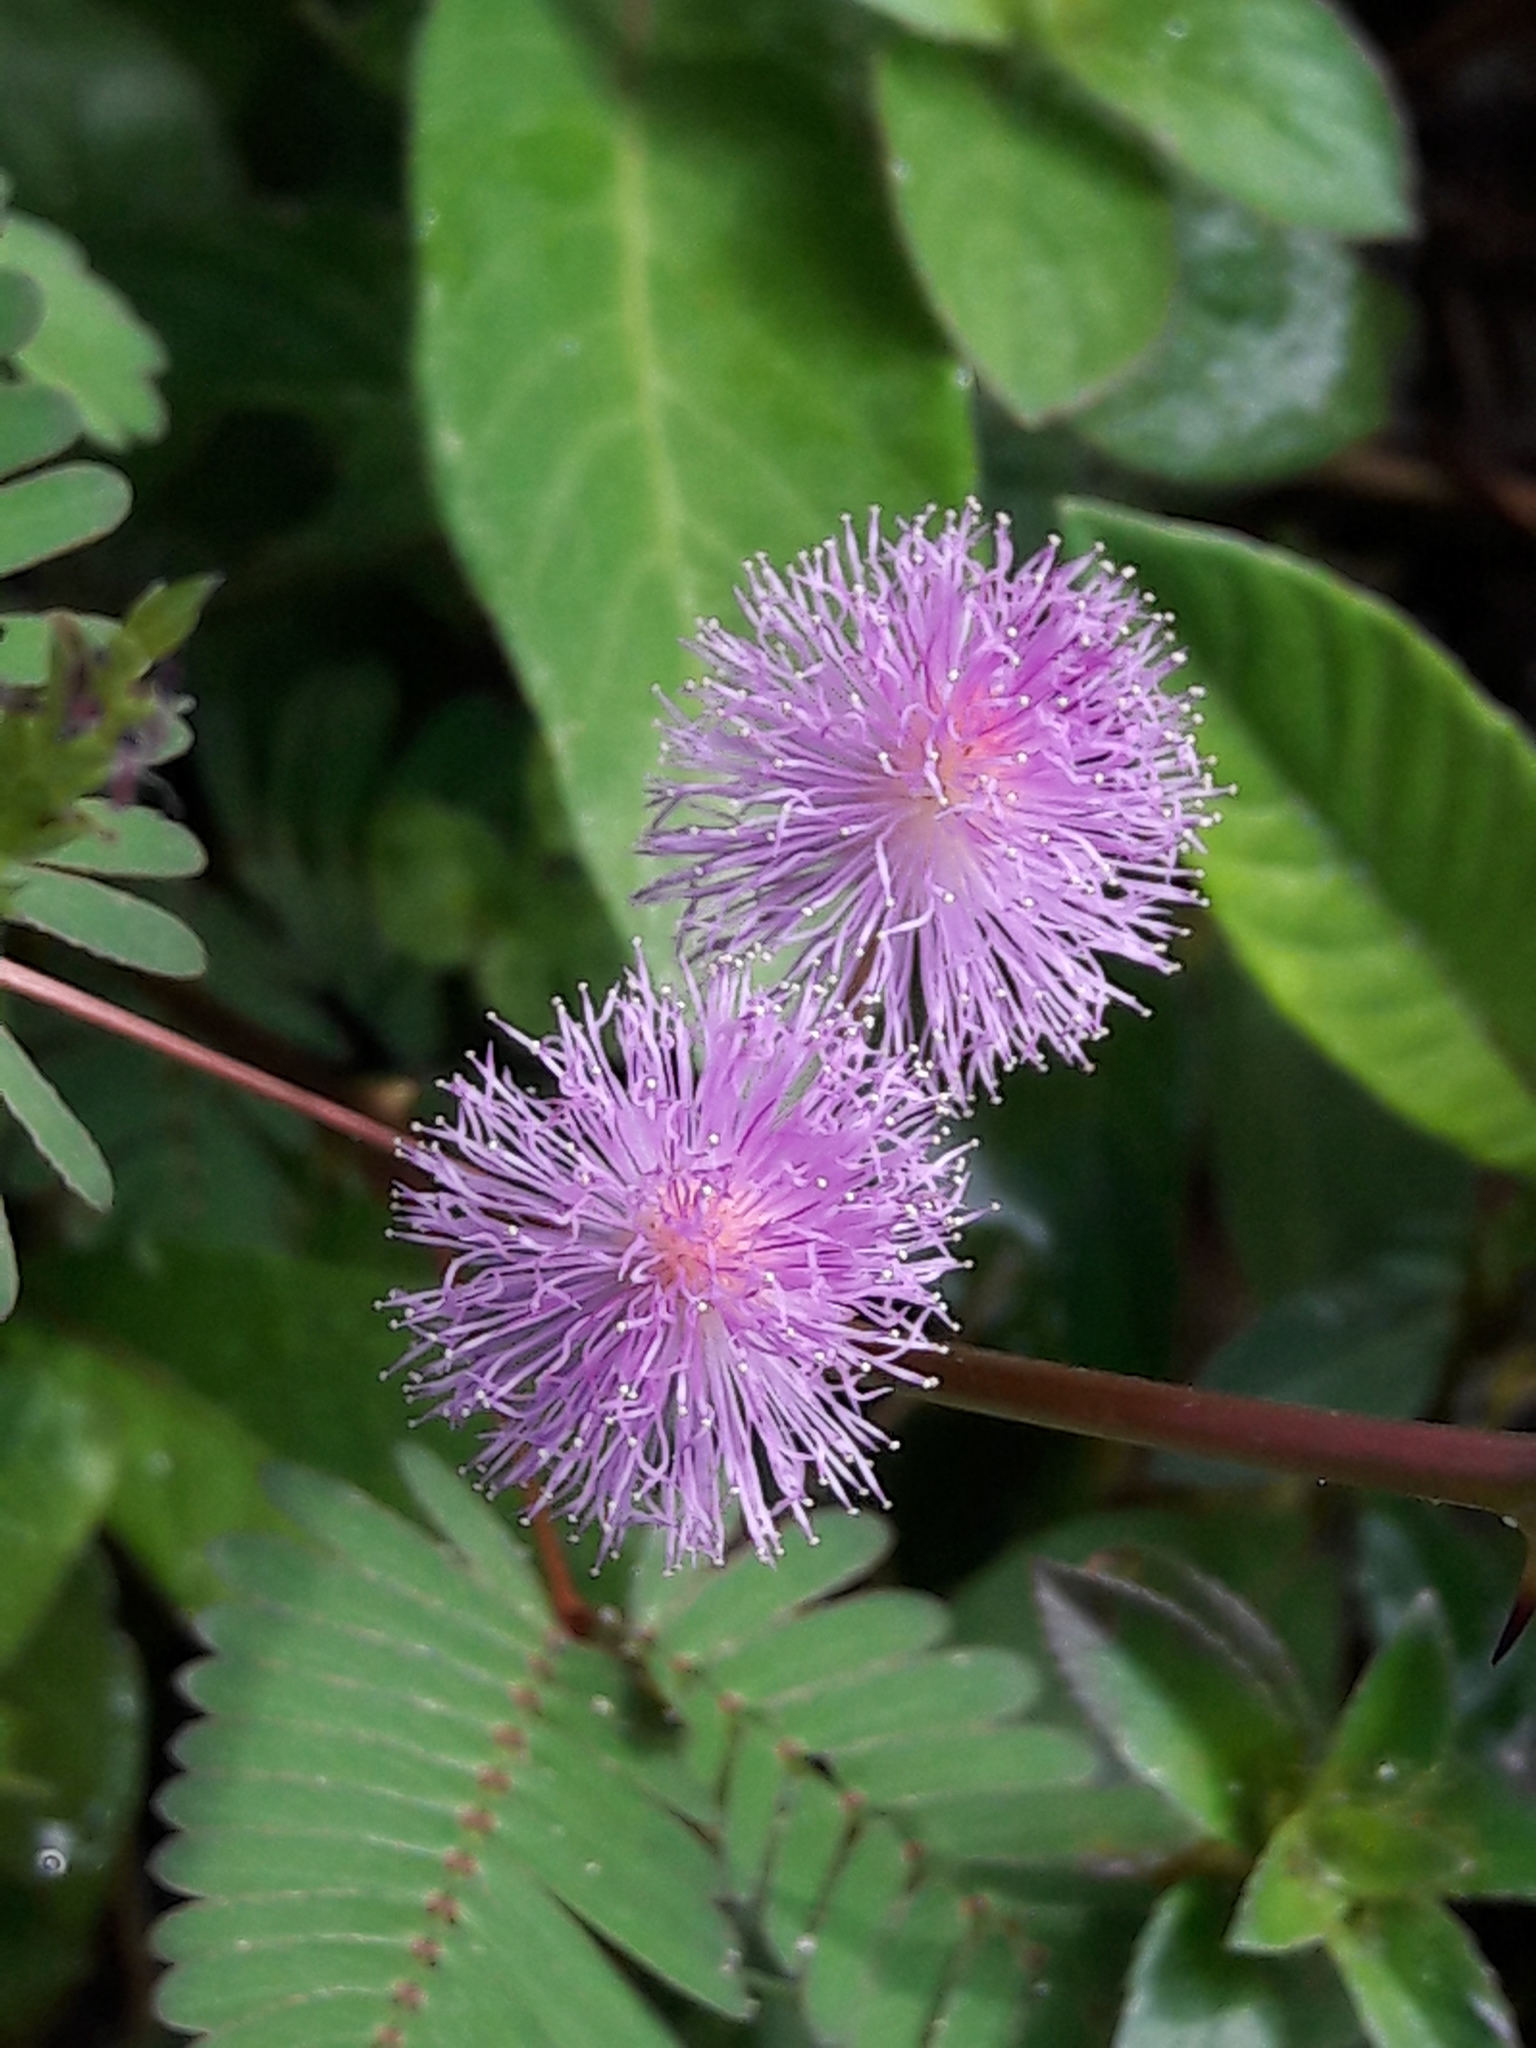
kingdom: Plantae
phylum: Tracheophyta
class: Magnoliopsida
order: Fabales
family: Fabaceae
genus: Mimosa
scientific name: Mimosa pudica
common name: Sensitive plant
